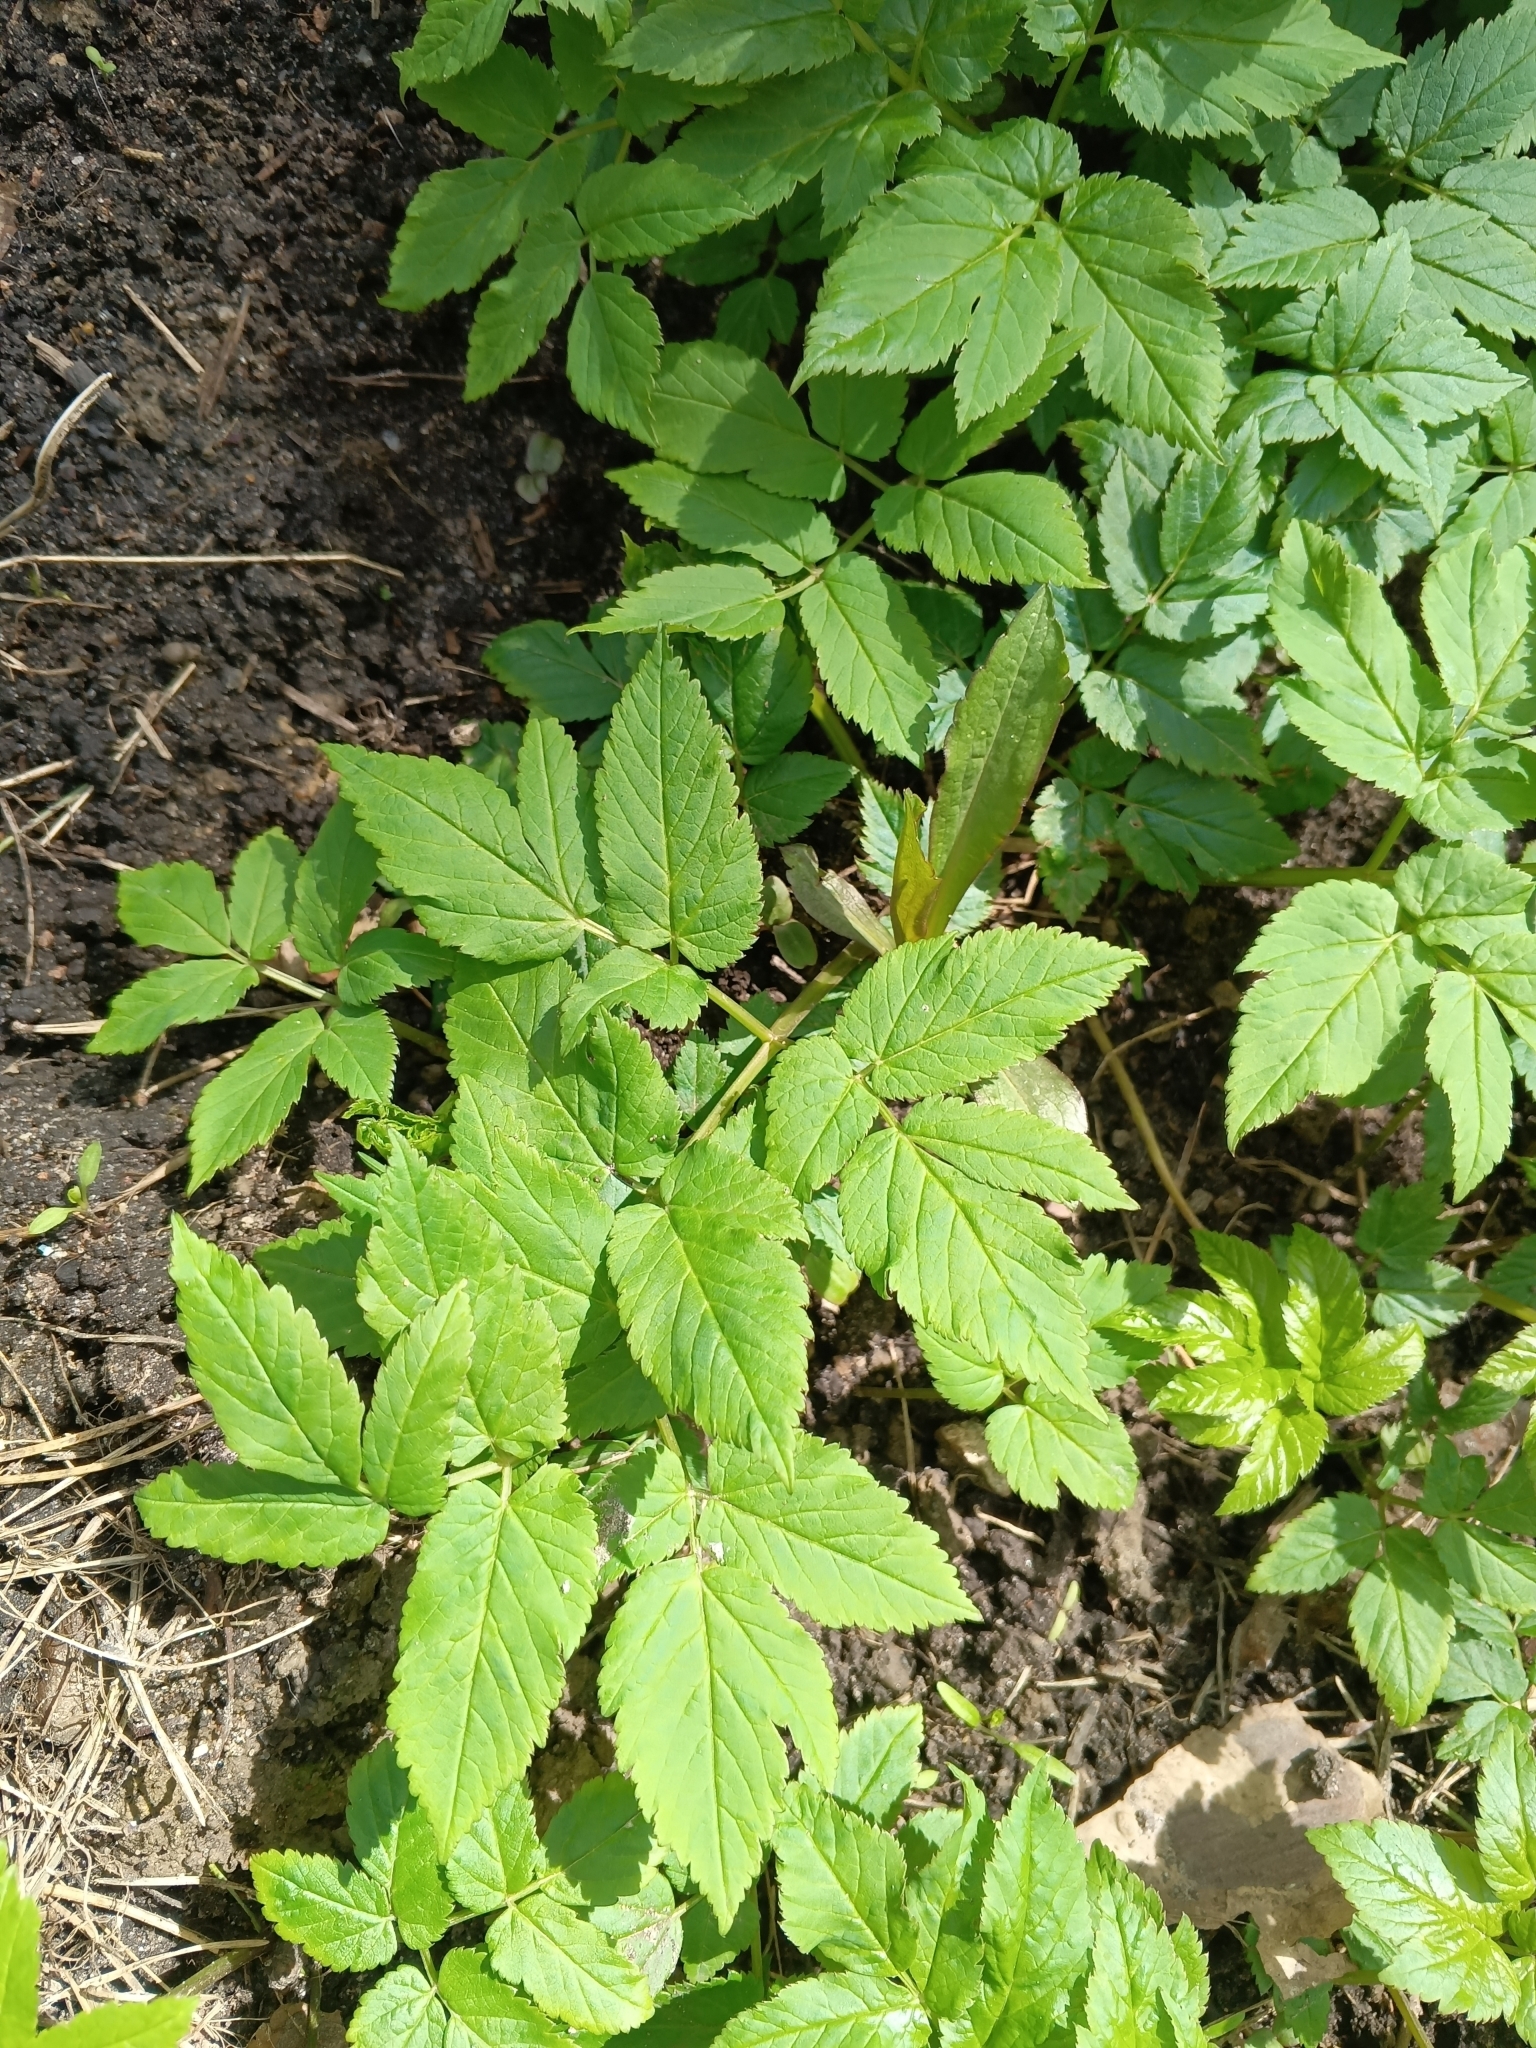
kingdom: Plantae
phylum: Tracheophyta
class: Magnoliopsida
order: Apiales
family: Apiaceae
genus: Aegopodium
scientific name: Aegopodium podagraria
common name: Ground-elder
